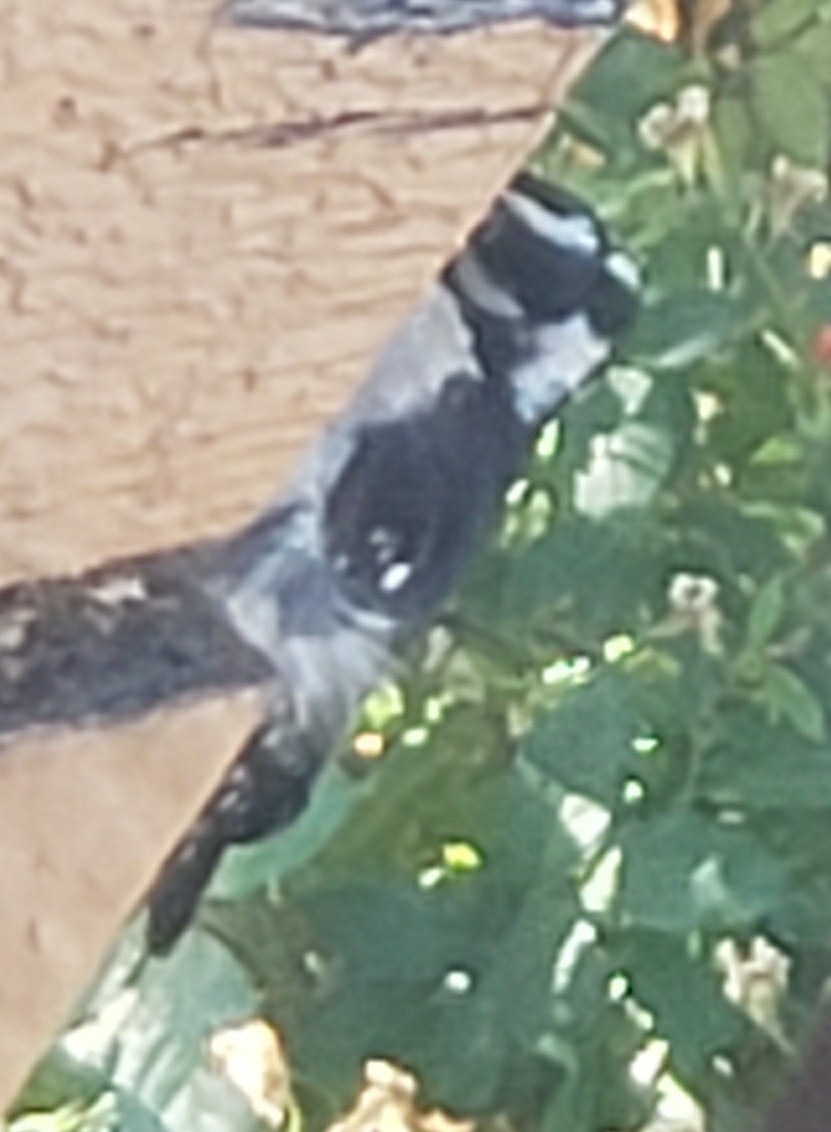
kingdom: Animalia
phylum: Chordata
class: Aves
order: Piciformes
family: Picidae
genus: Dryobates
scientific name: Dryobates pubescens
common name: Downy woodpecker
